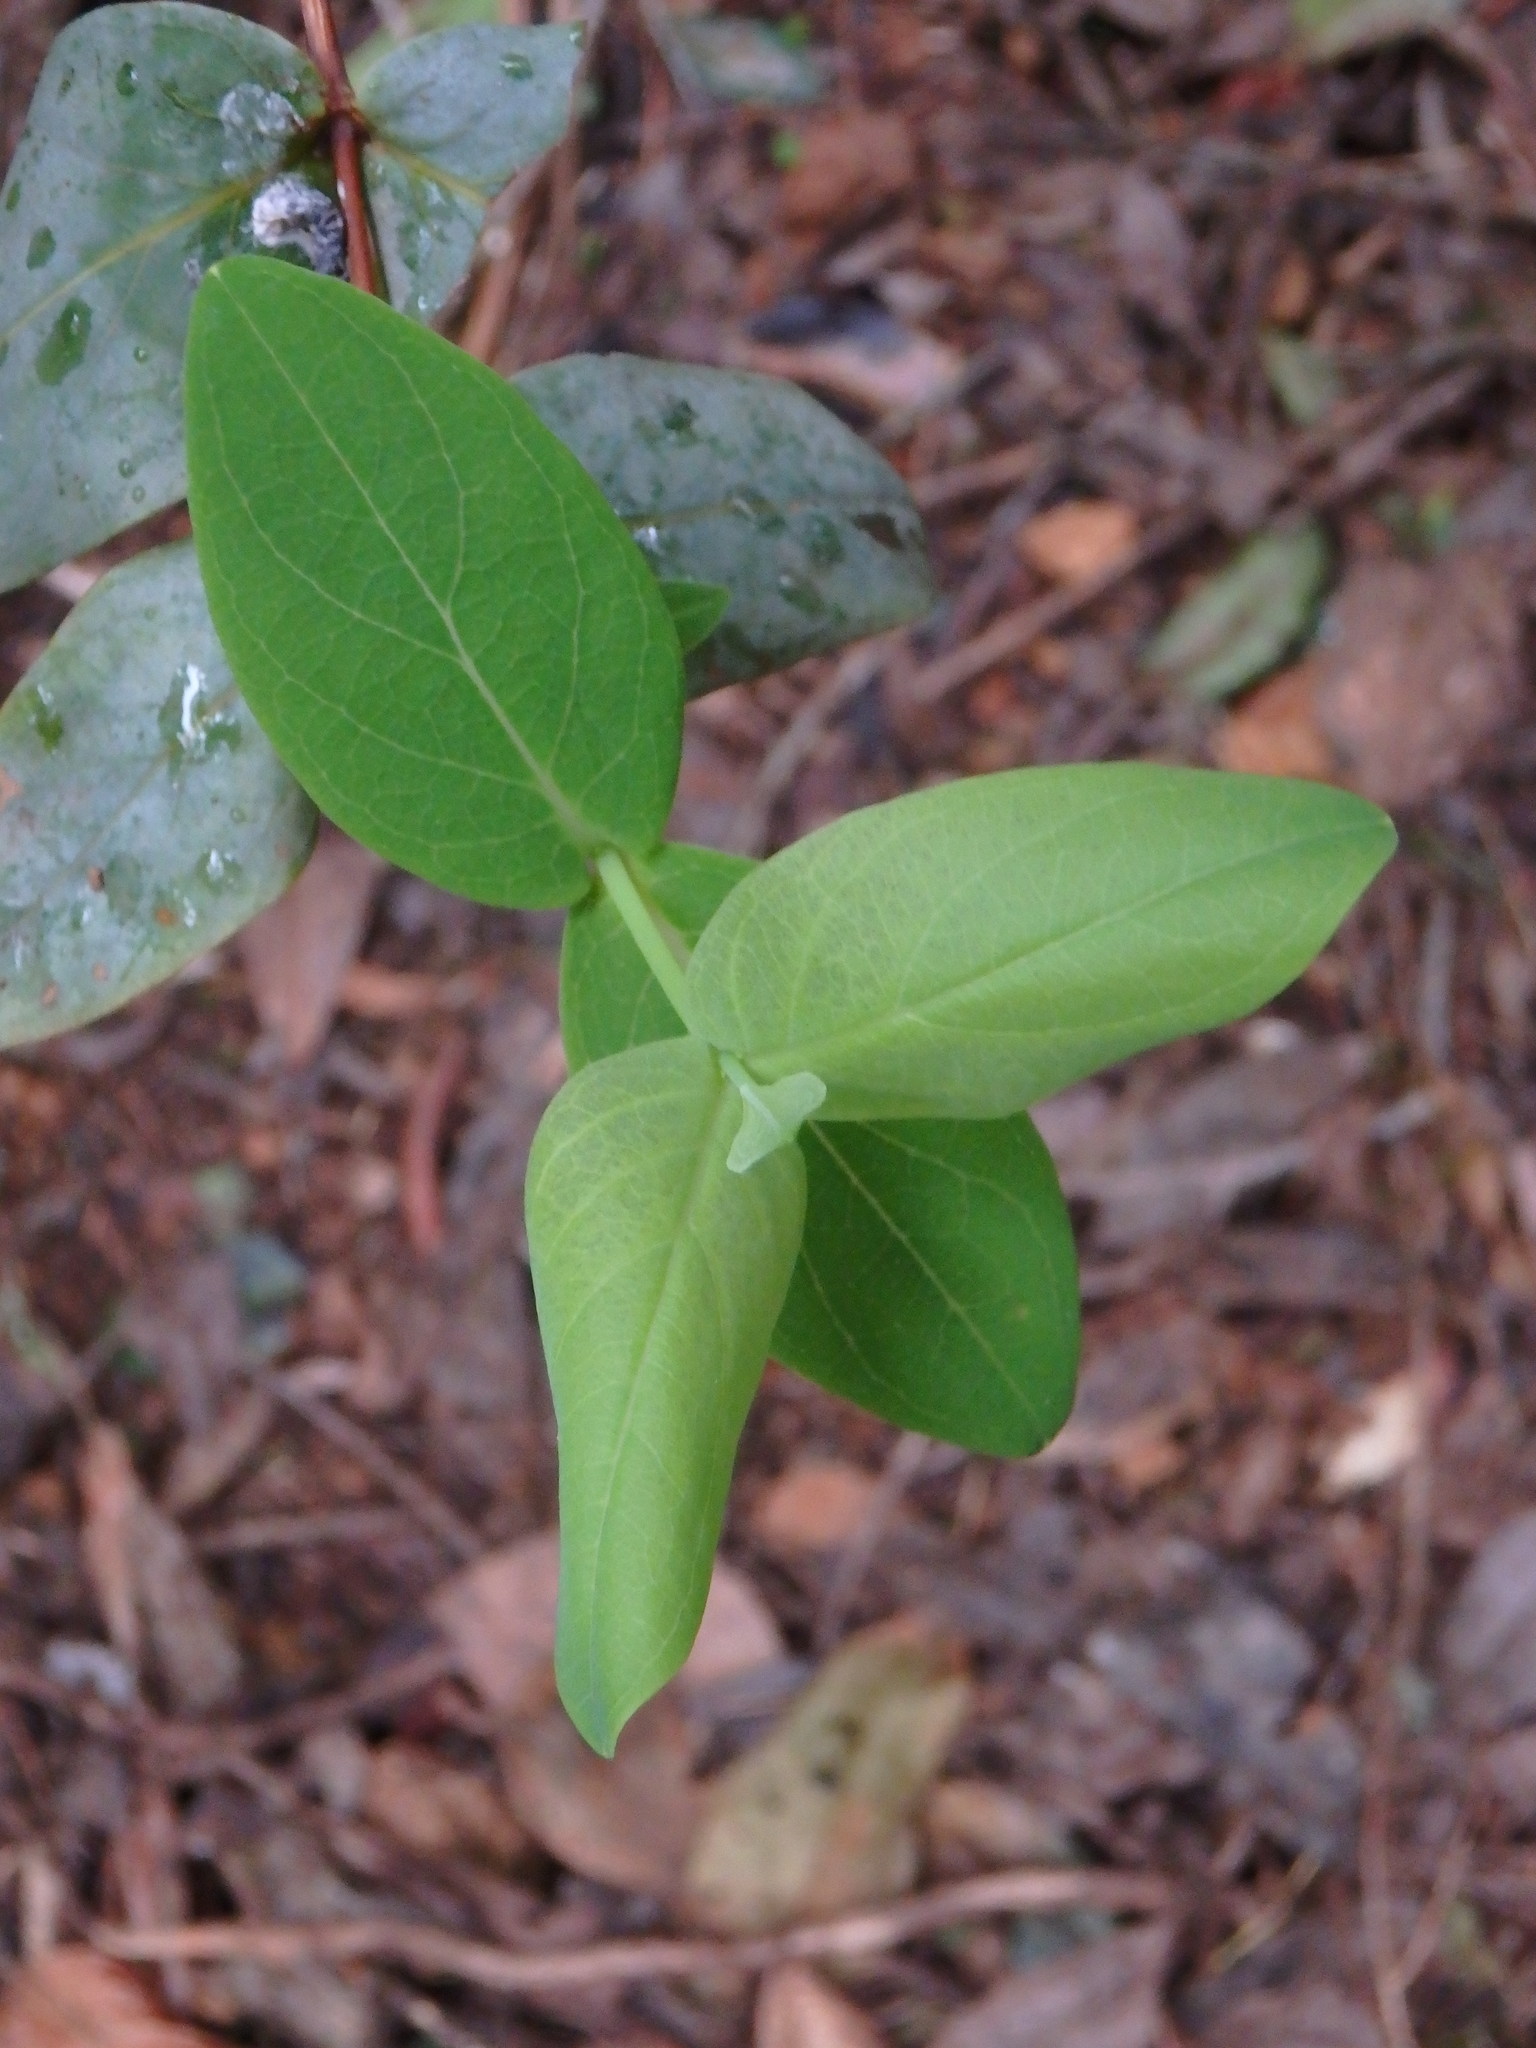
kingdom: Plantae
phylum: Tracheophyta
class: Magnoliopsida
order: Malpighiales
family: Hypericaceae
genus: Hypericum
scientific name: Hypericum grandifolium
